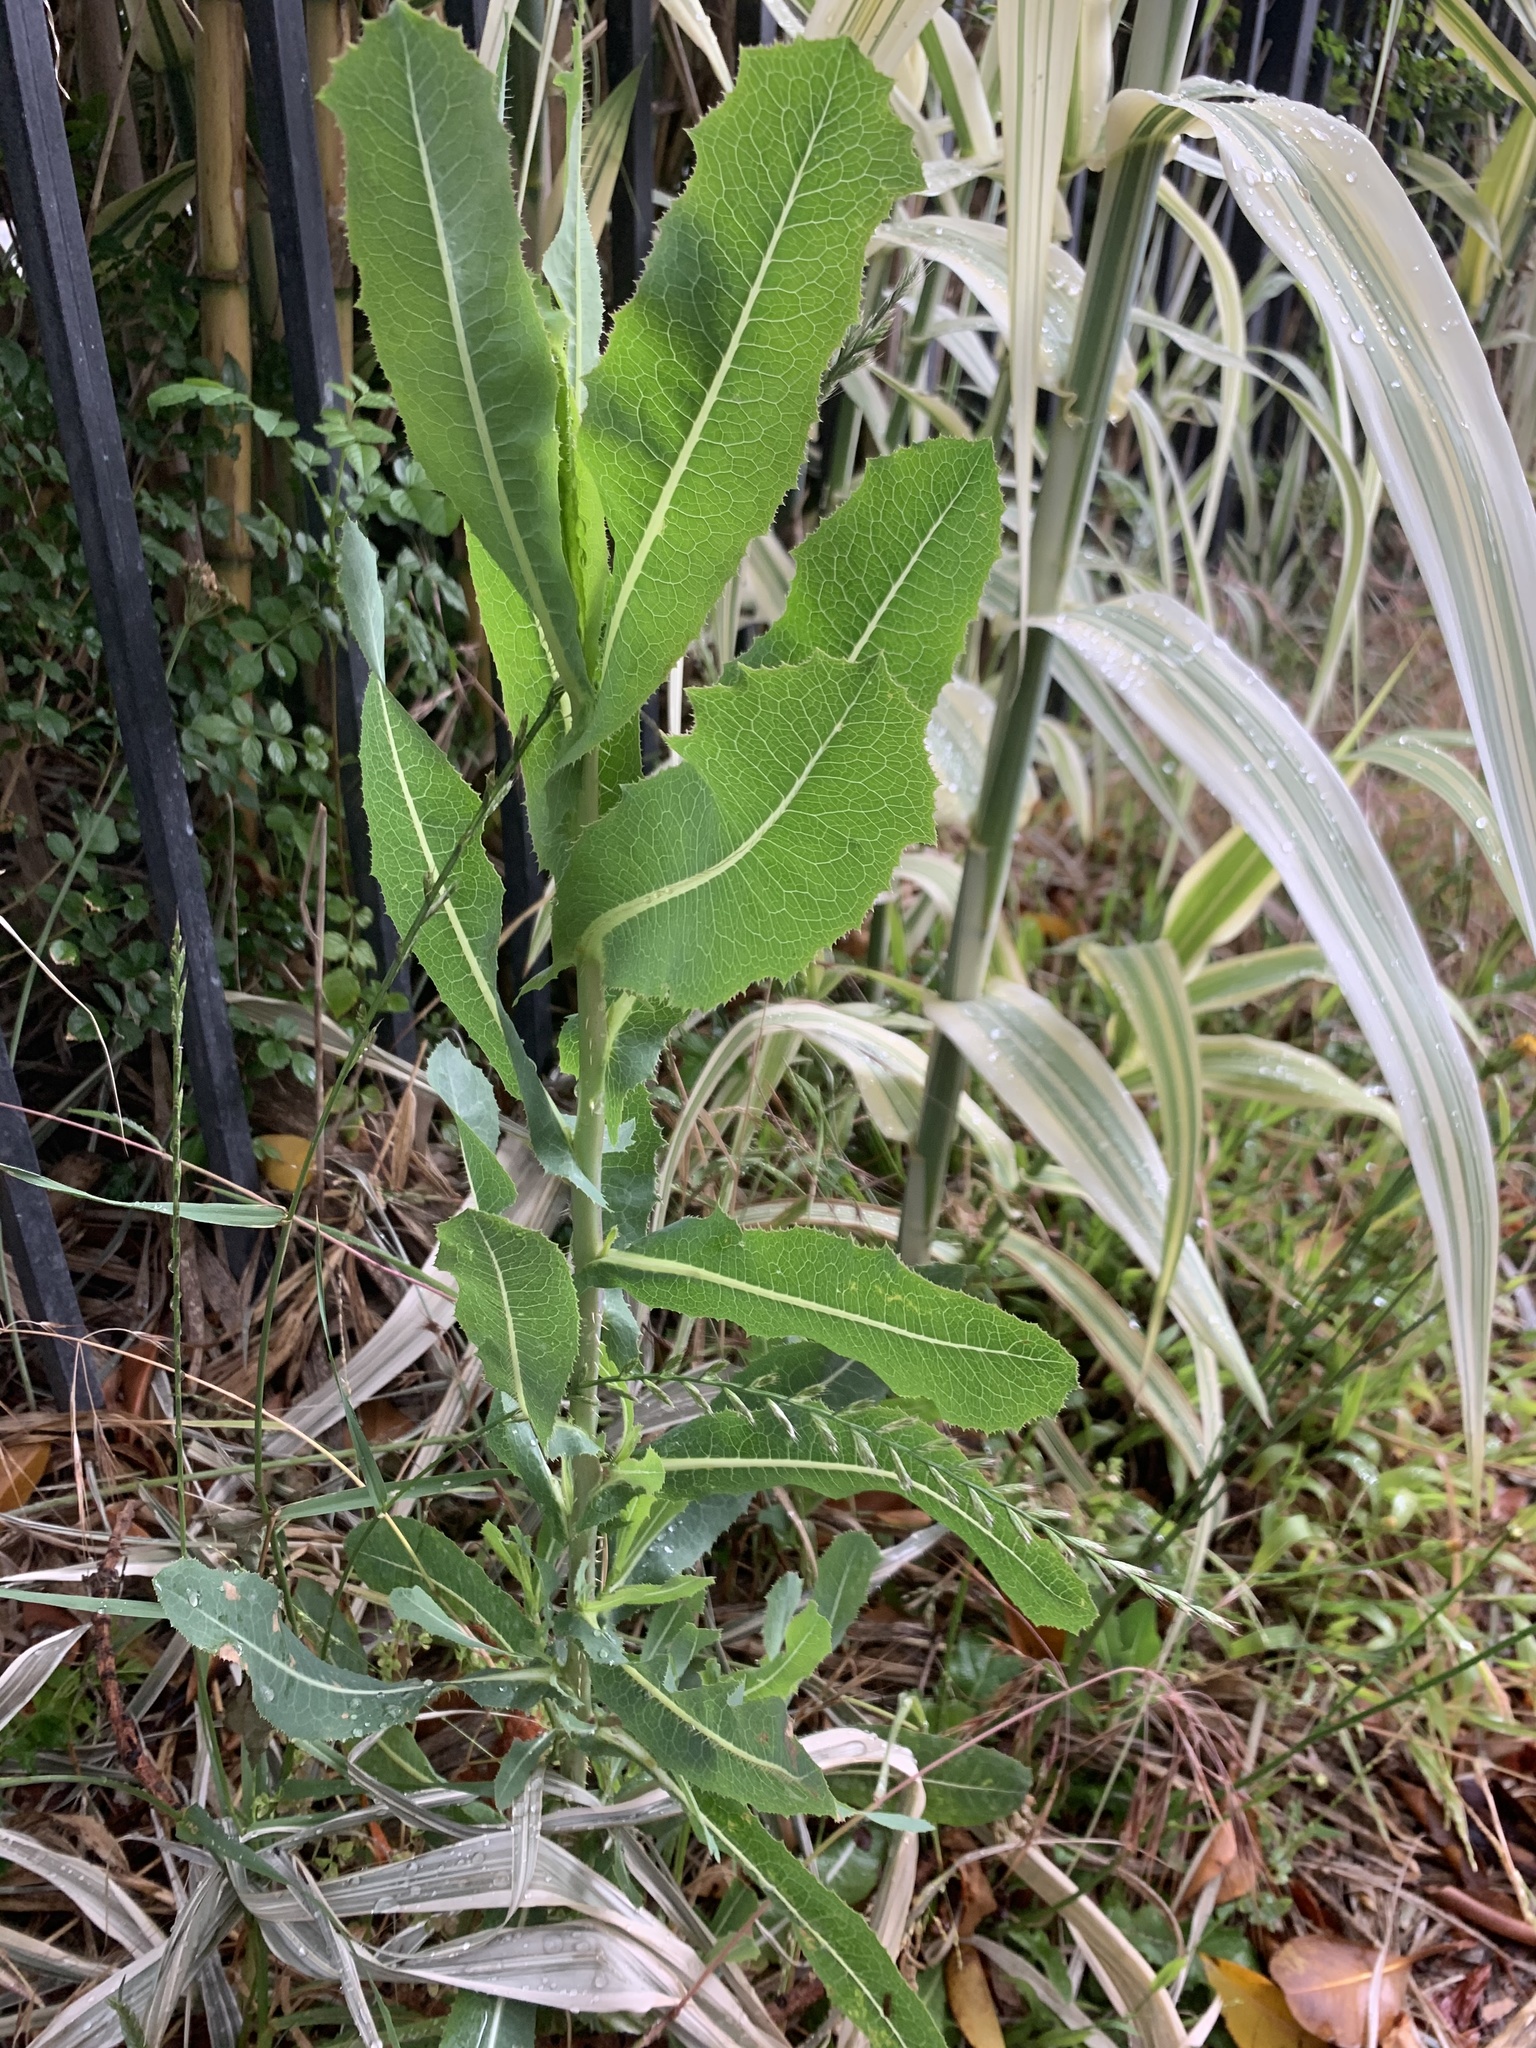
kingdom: Plantae
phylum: Tracheophyta
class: Magnoliopsida
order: Asterales
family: Asteraceae
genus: Lactuca
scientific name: Lactuca serriola
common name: Prickly lettuce
